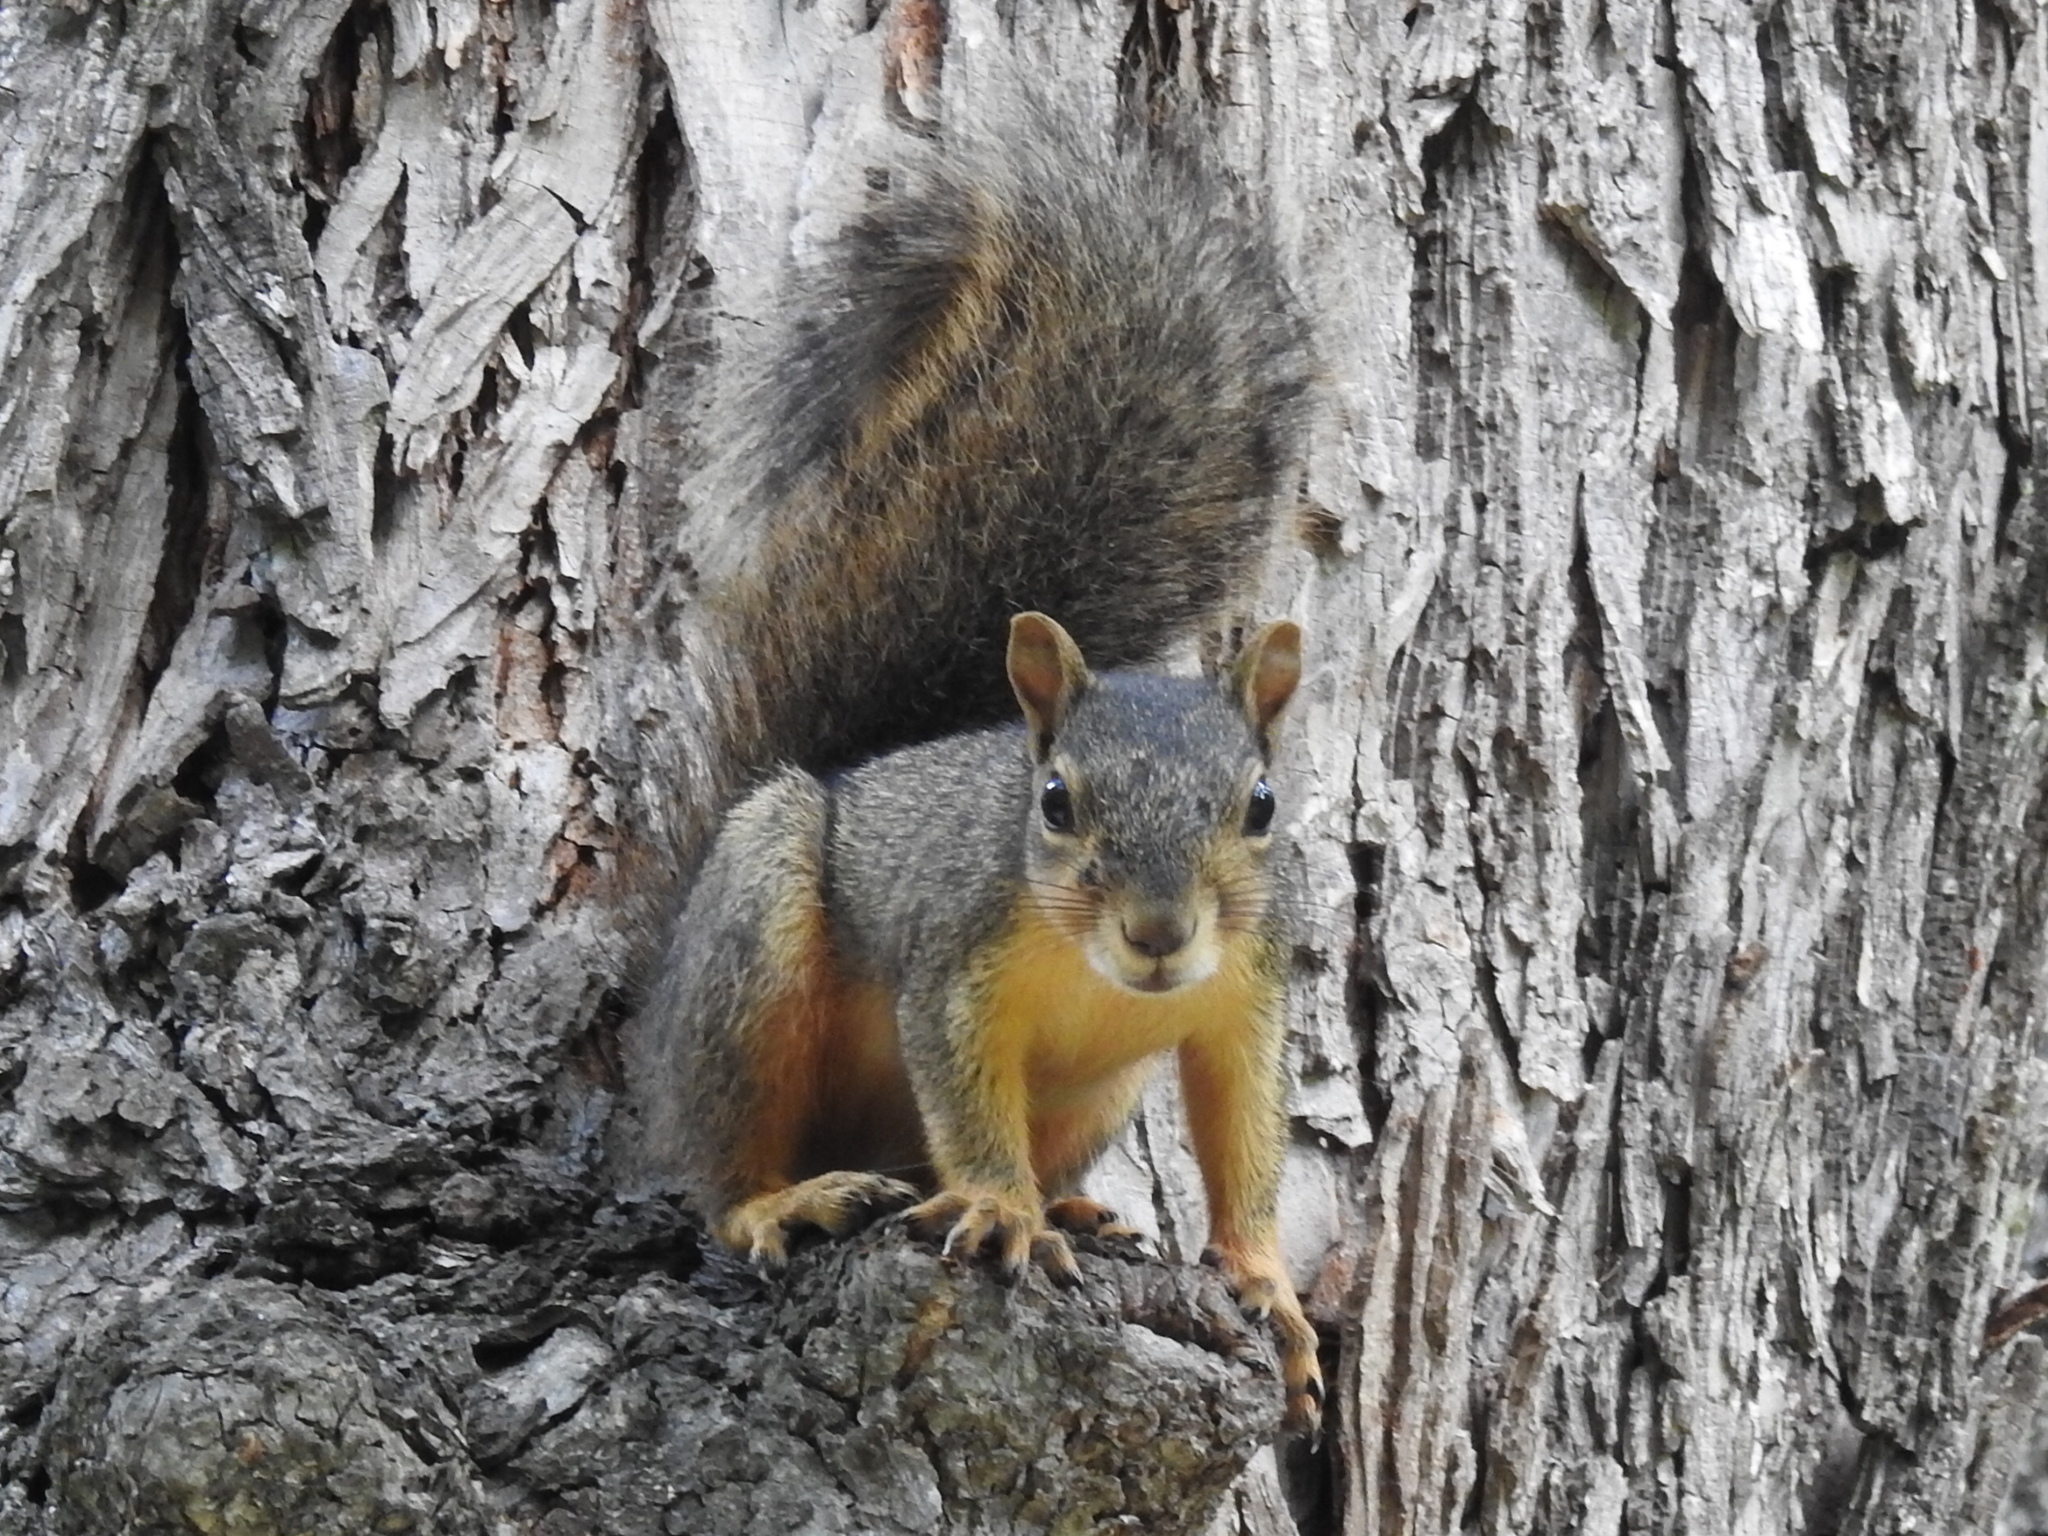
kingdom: Animalia
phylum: Chordata
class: Mammalia
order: Rodentia
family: Sciuridae
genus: Sciurus
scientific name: Sciurus niger
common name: Fox squirrel
